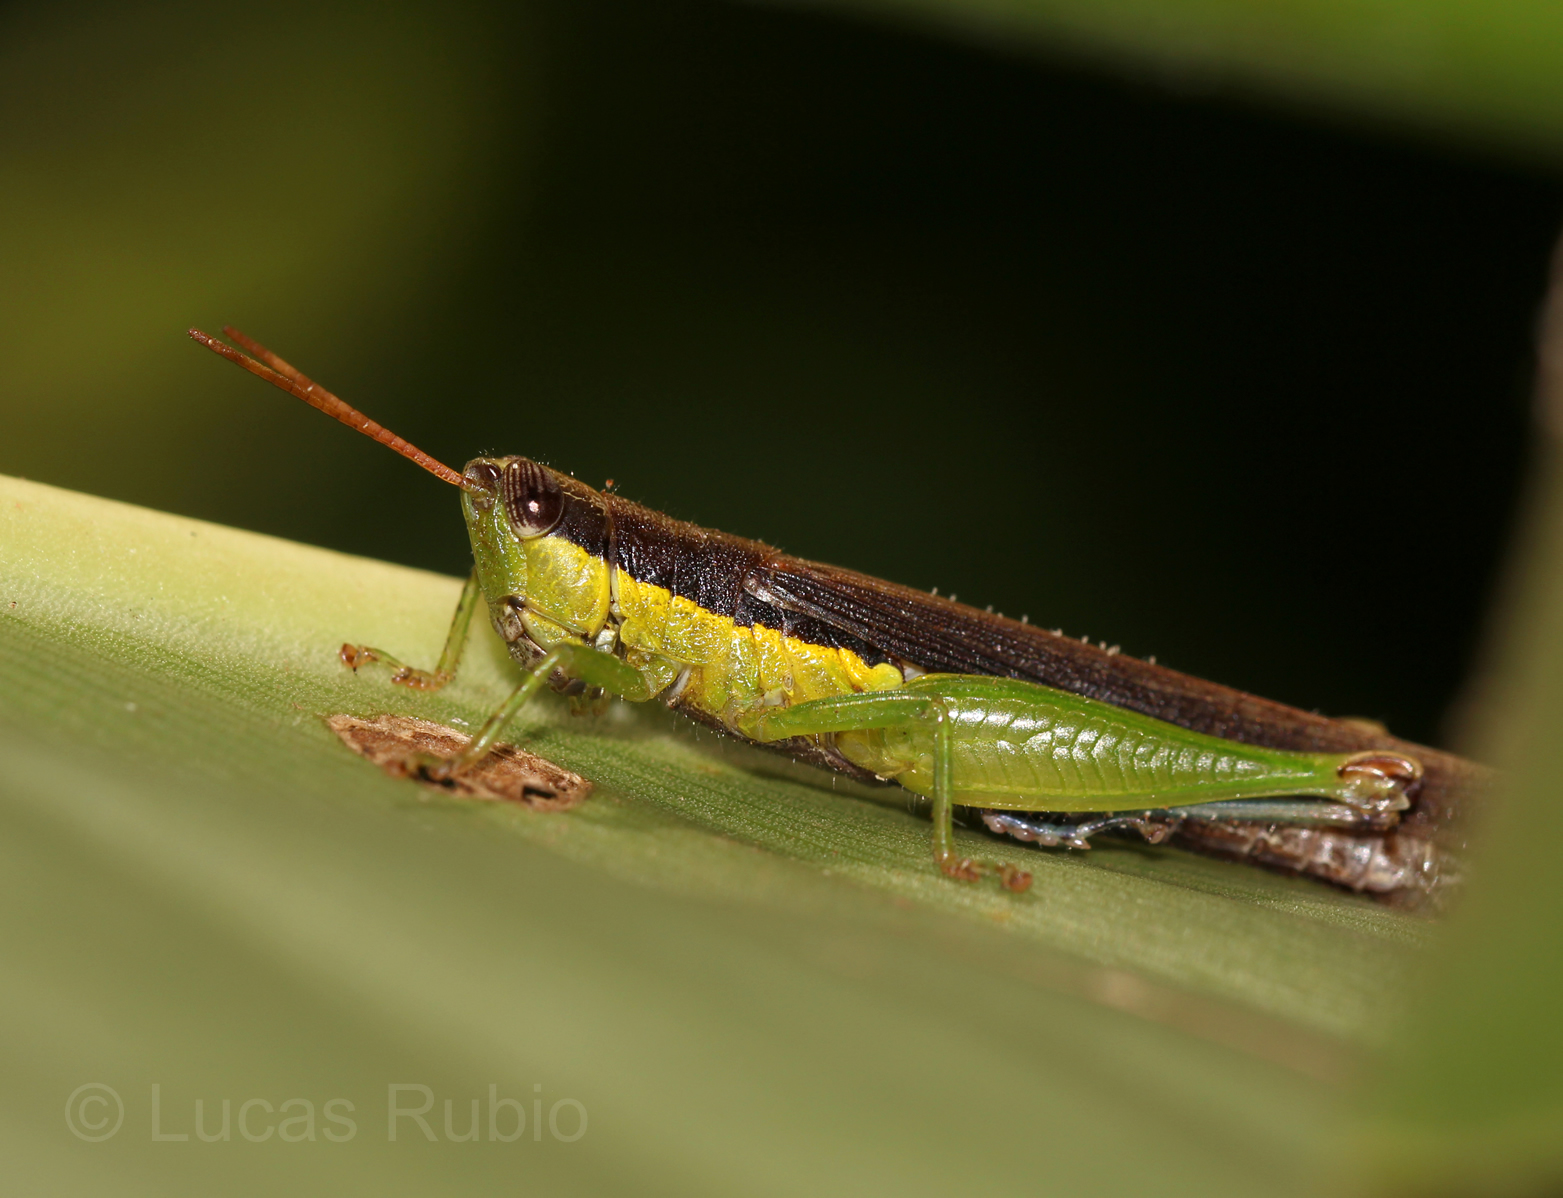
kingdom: Animalia
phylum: Arthropoda
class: Insecta
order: Orthoptera
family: Acrididae
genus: Cornops
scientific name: Cornops frenatum
